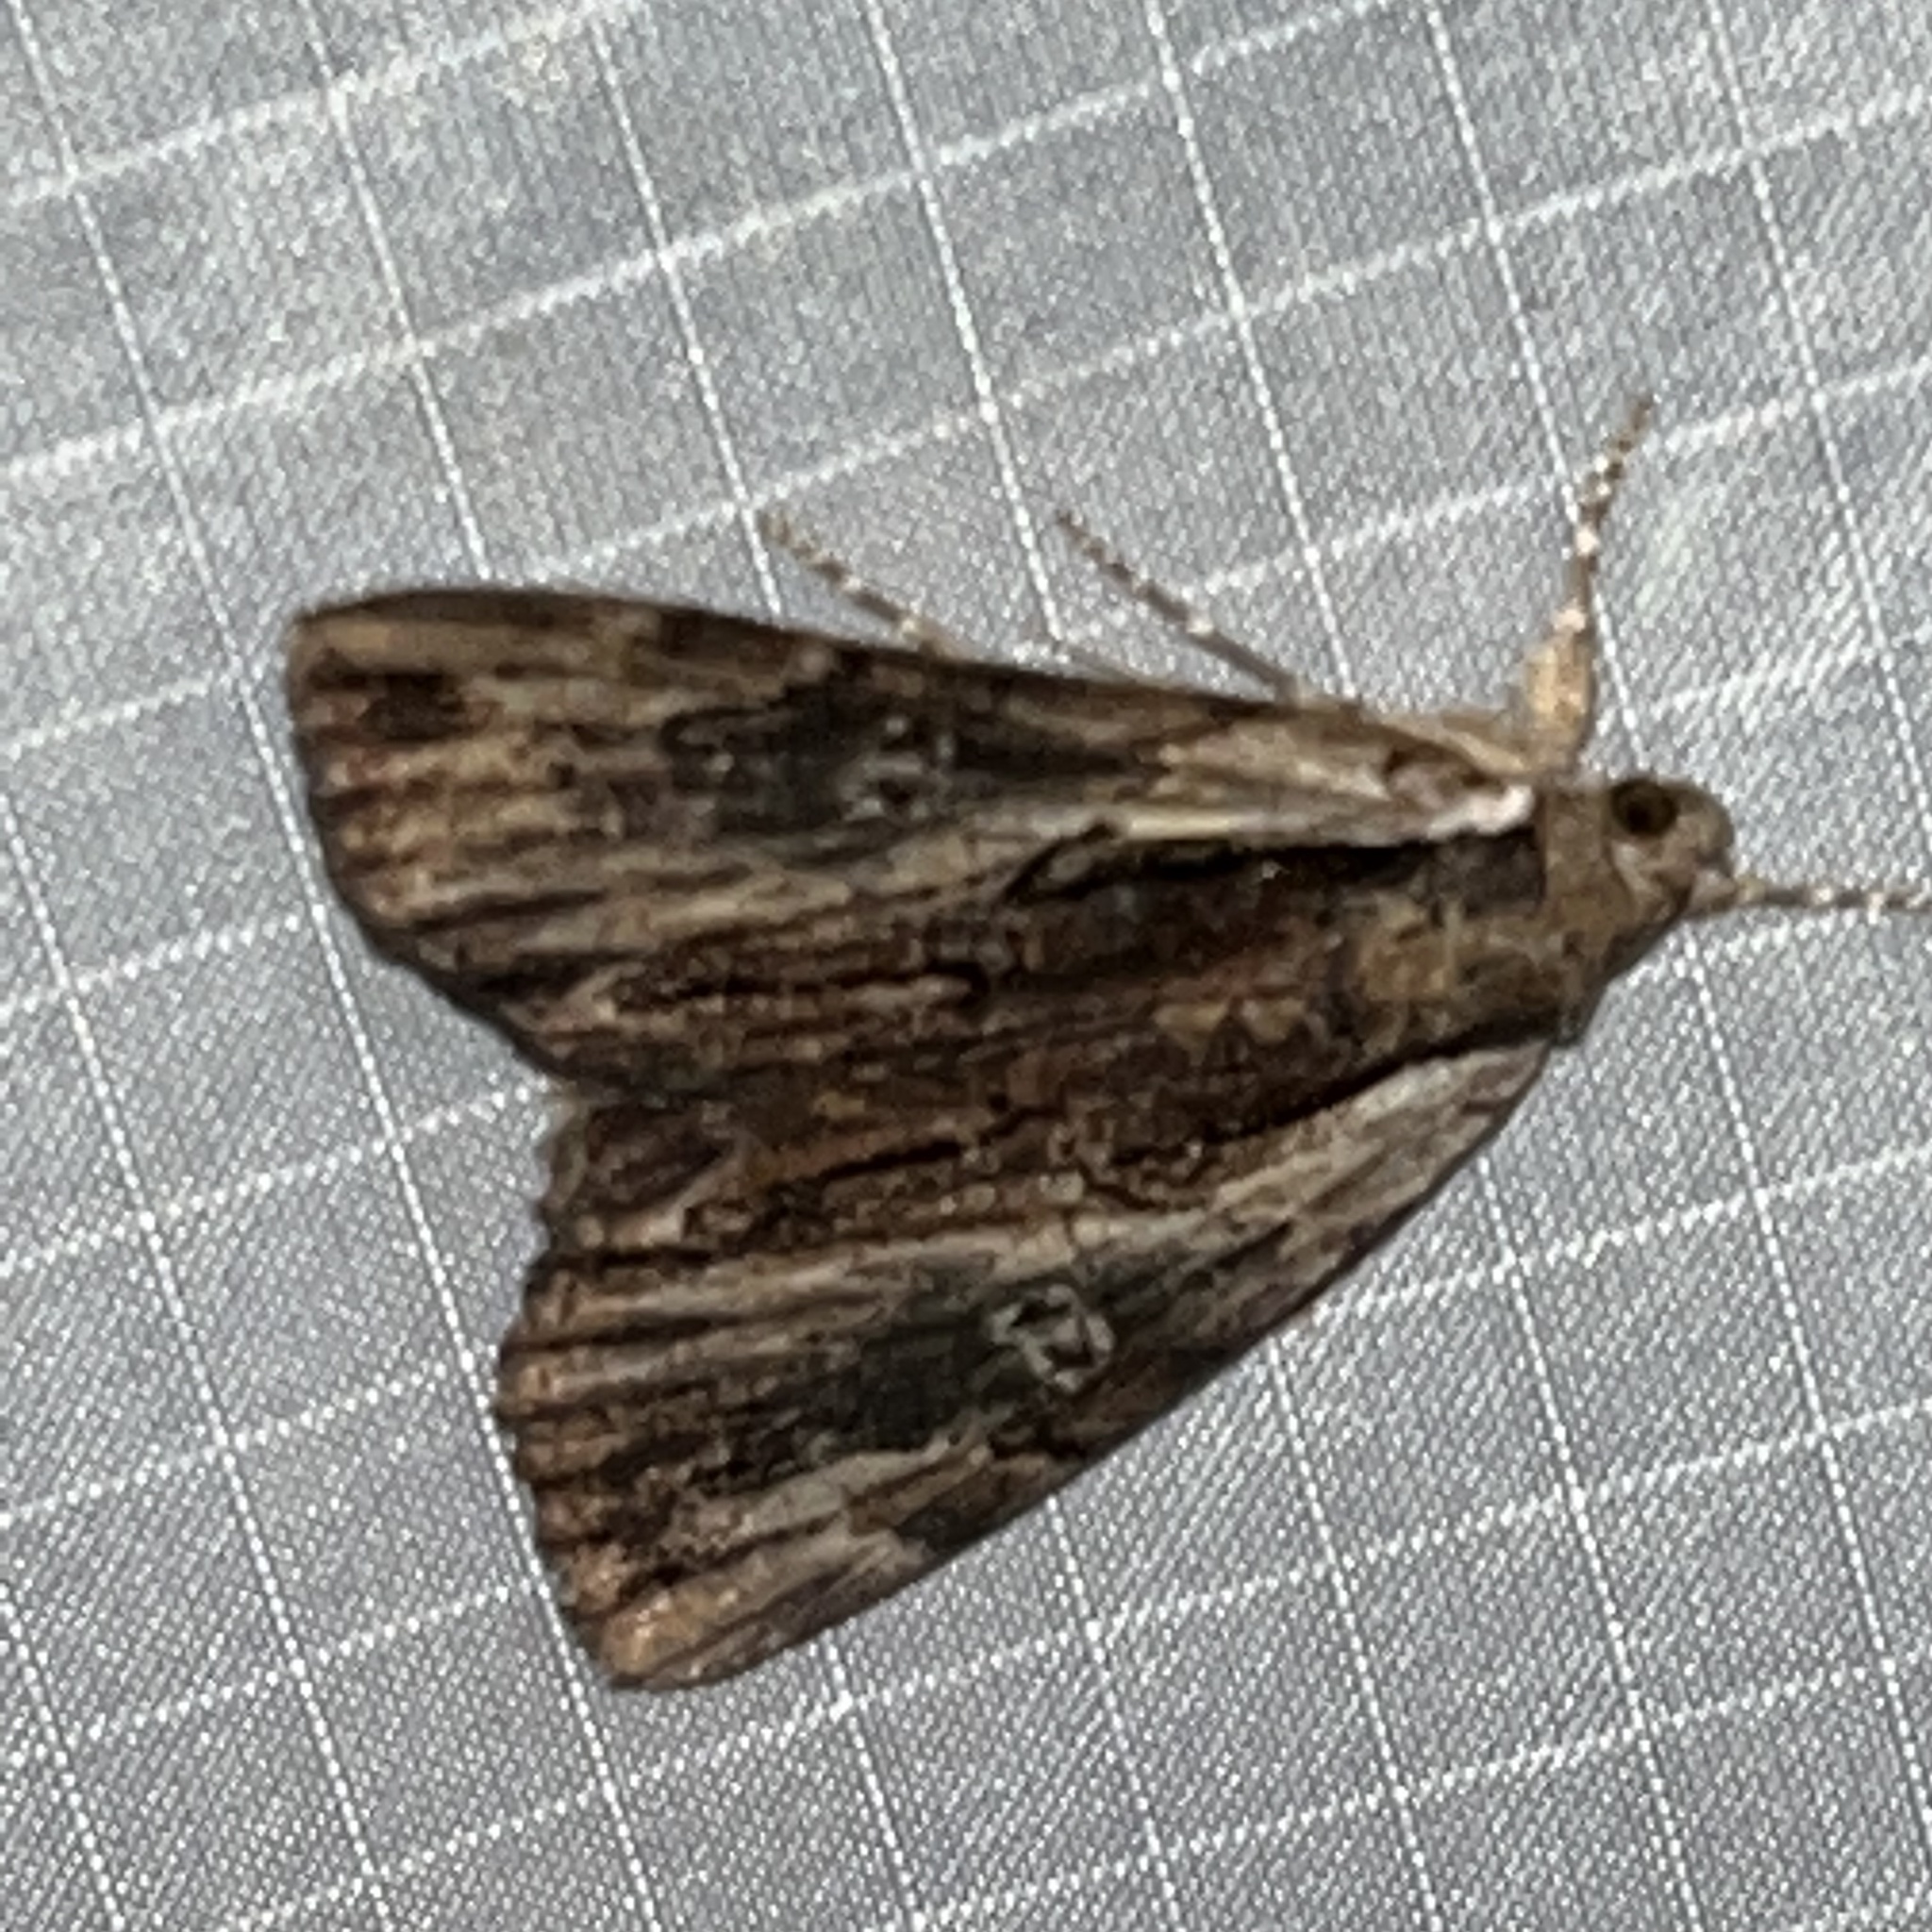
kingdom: Animalia
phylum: Arthropoda
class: Insecta
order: Lepidoptera
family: Erebidae
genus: Catocala
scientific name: Catocala ultronia
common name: Ultronia underwing
